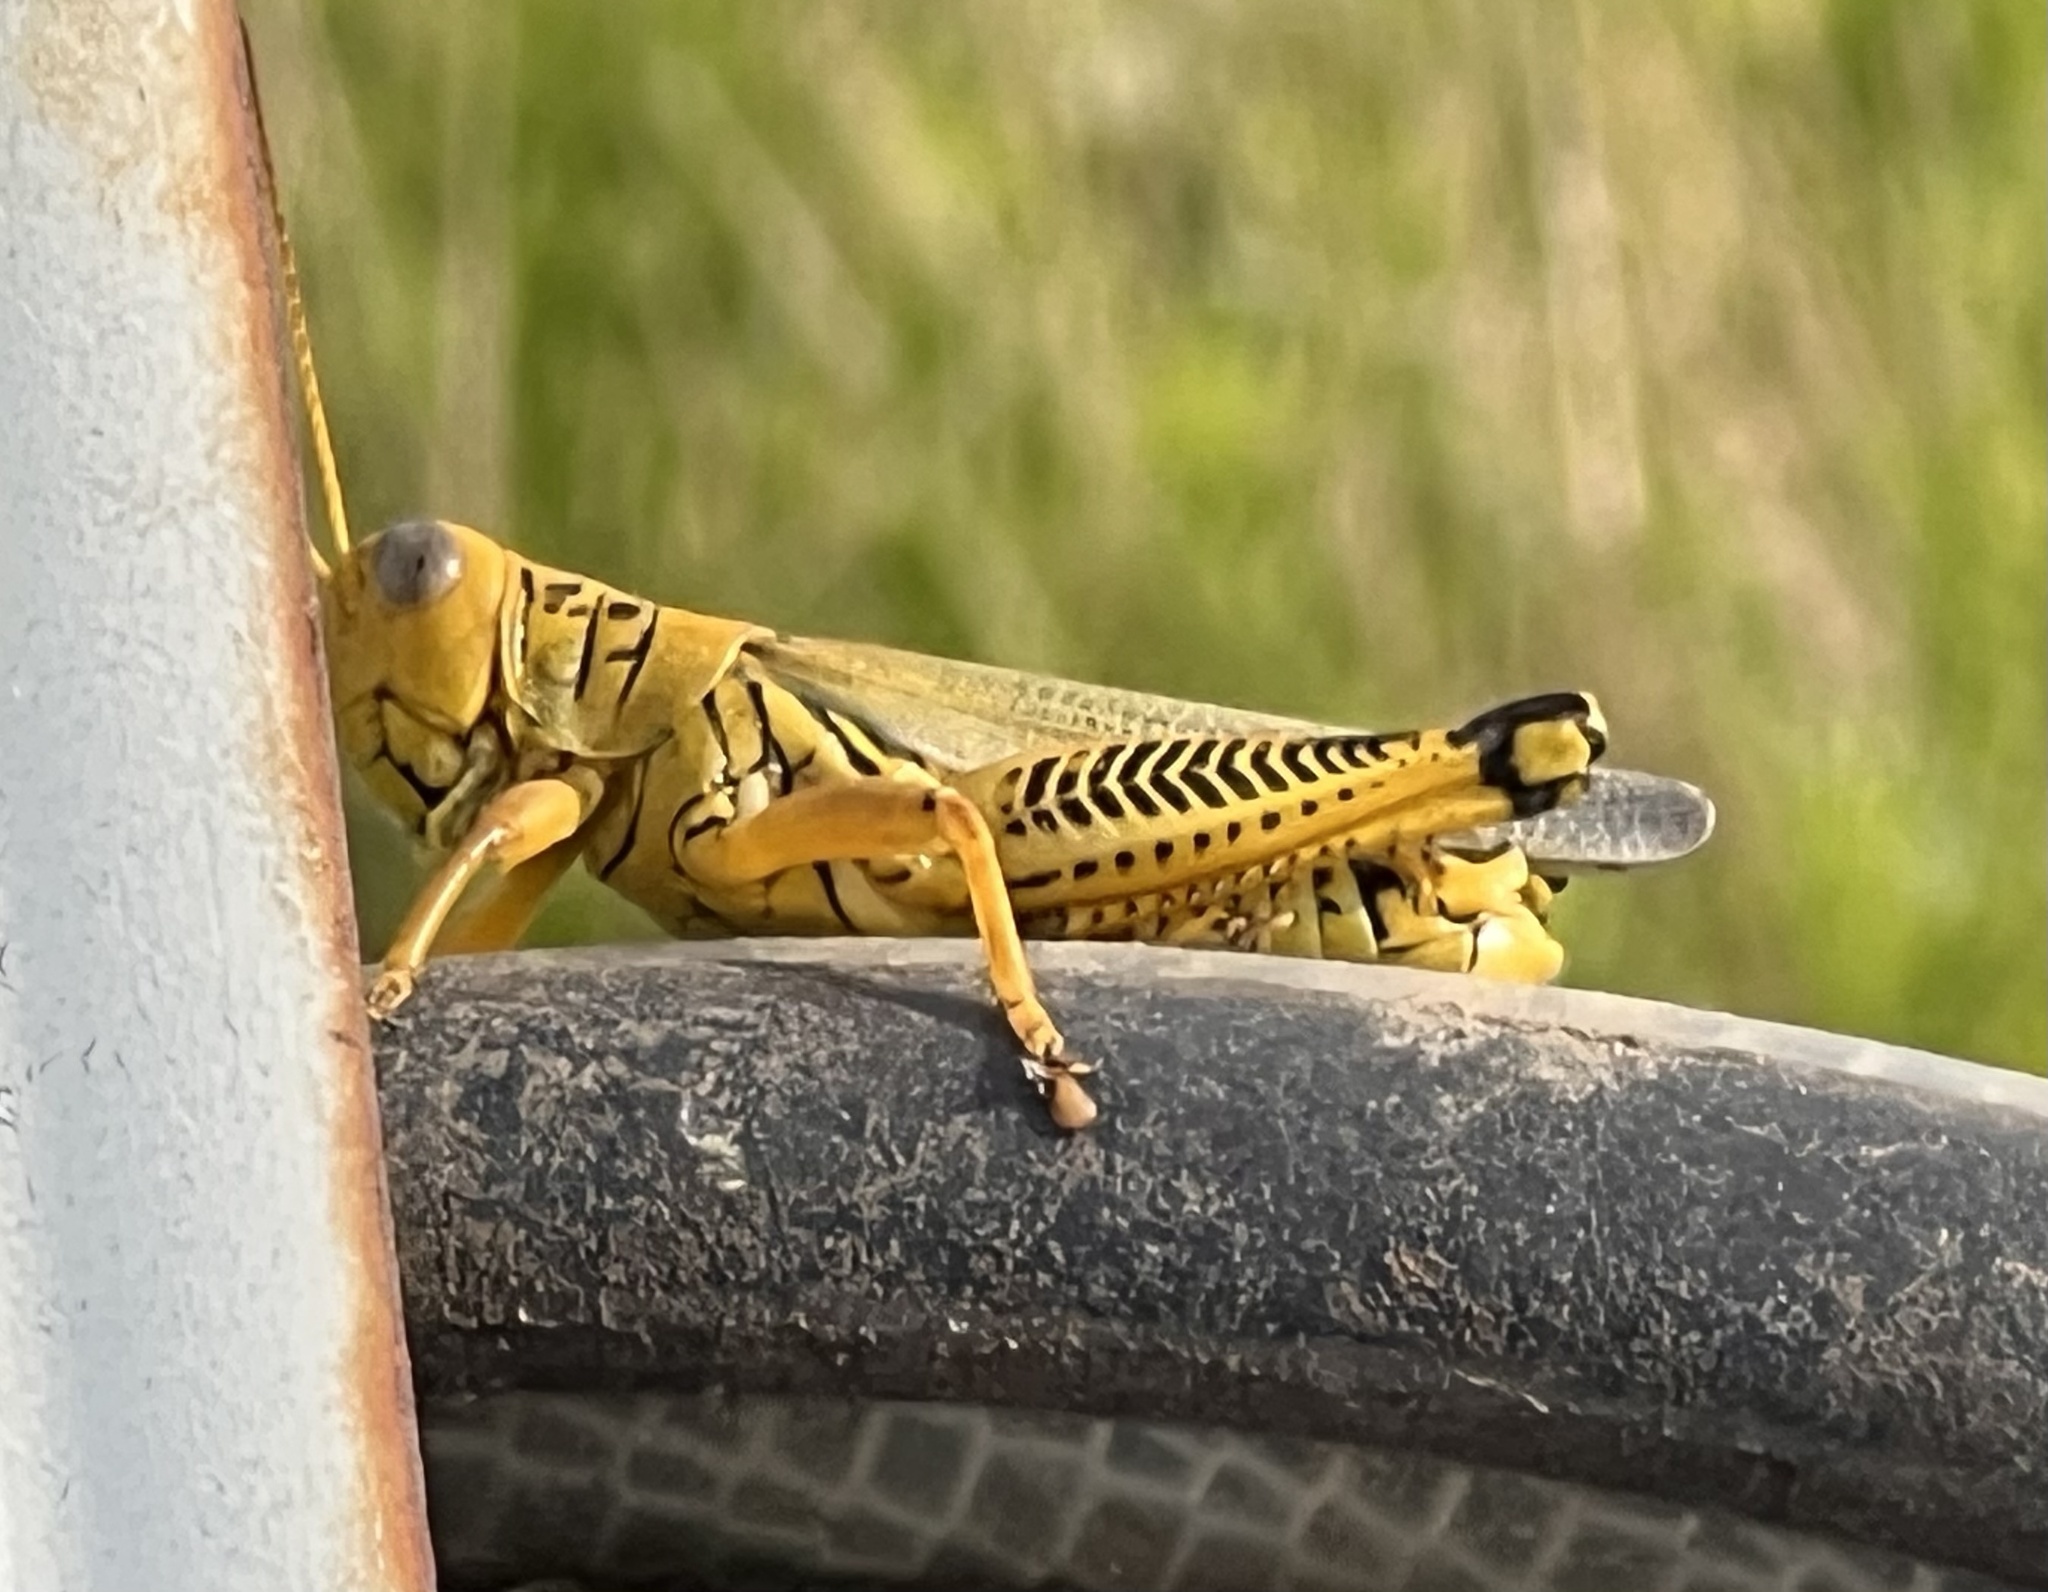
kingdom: Animalia
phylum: Arthropoda
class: Insecta
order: Orthoptera
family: Acrididae
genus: Melanoplus
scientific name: Melanoplus differentialis
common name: Differential grasshopper
